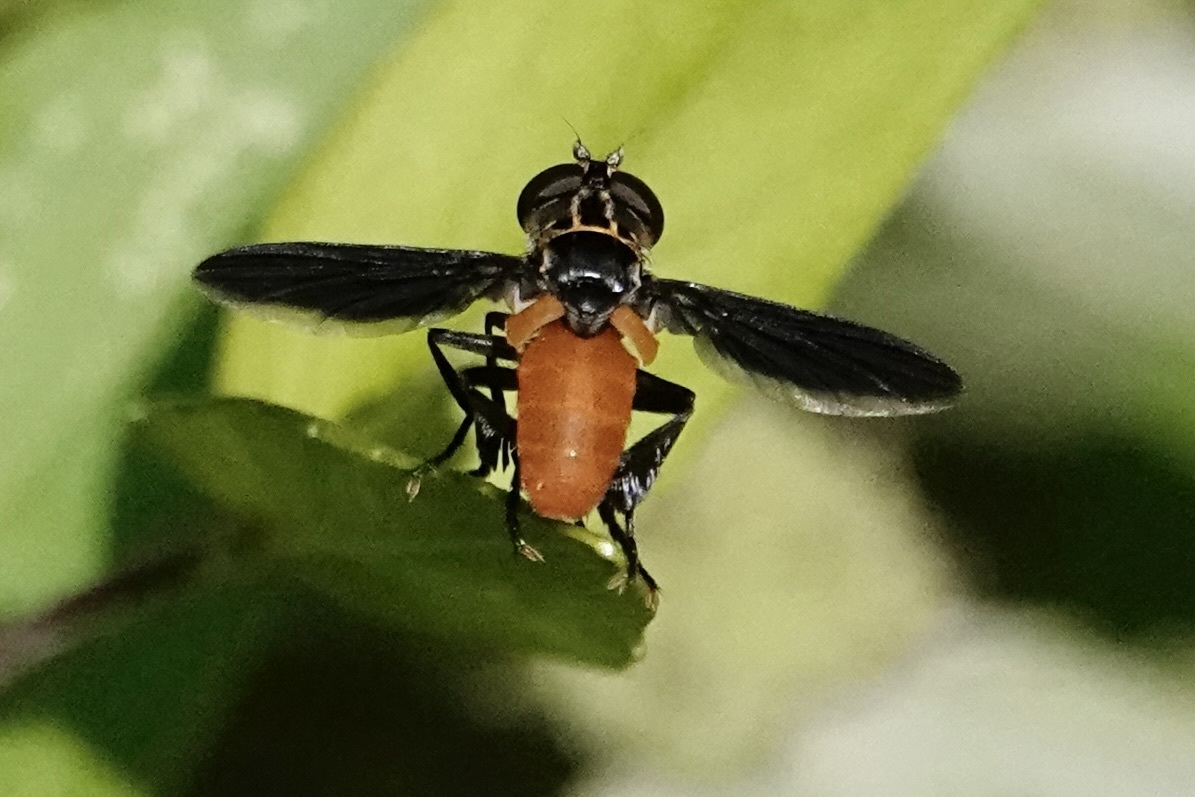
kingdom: Animalia
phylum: Arthropoda
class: Insecta
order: Diptera
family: Tachinidae
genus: Trichopoda
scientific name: Trichopoda pennipes
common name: Tachinid fly
